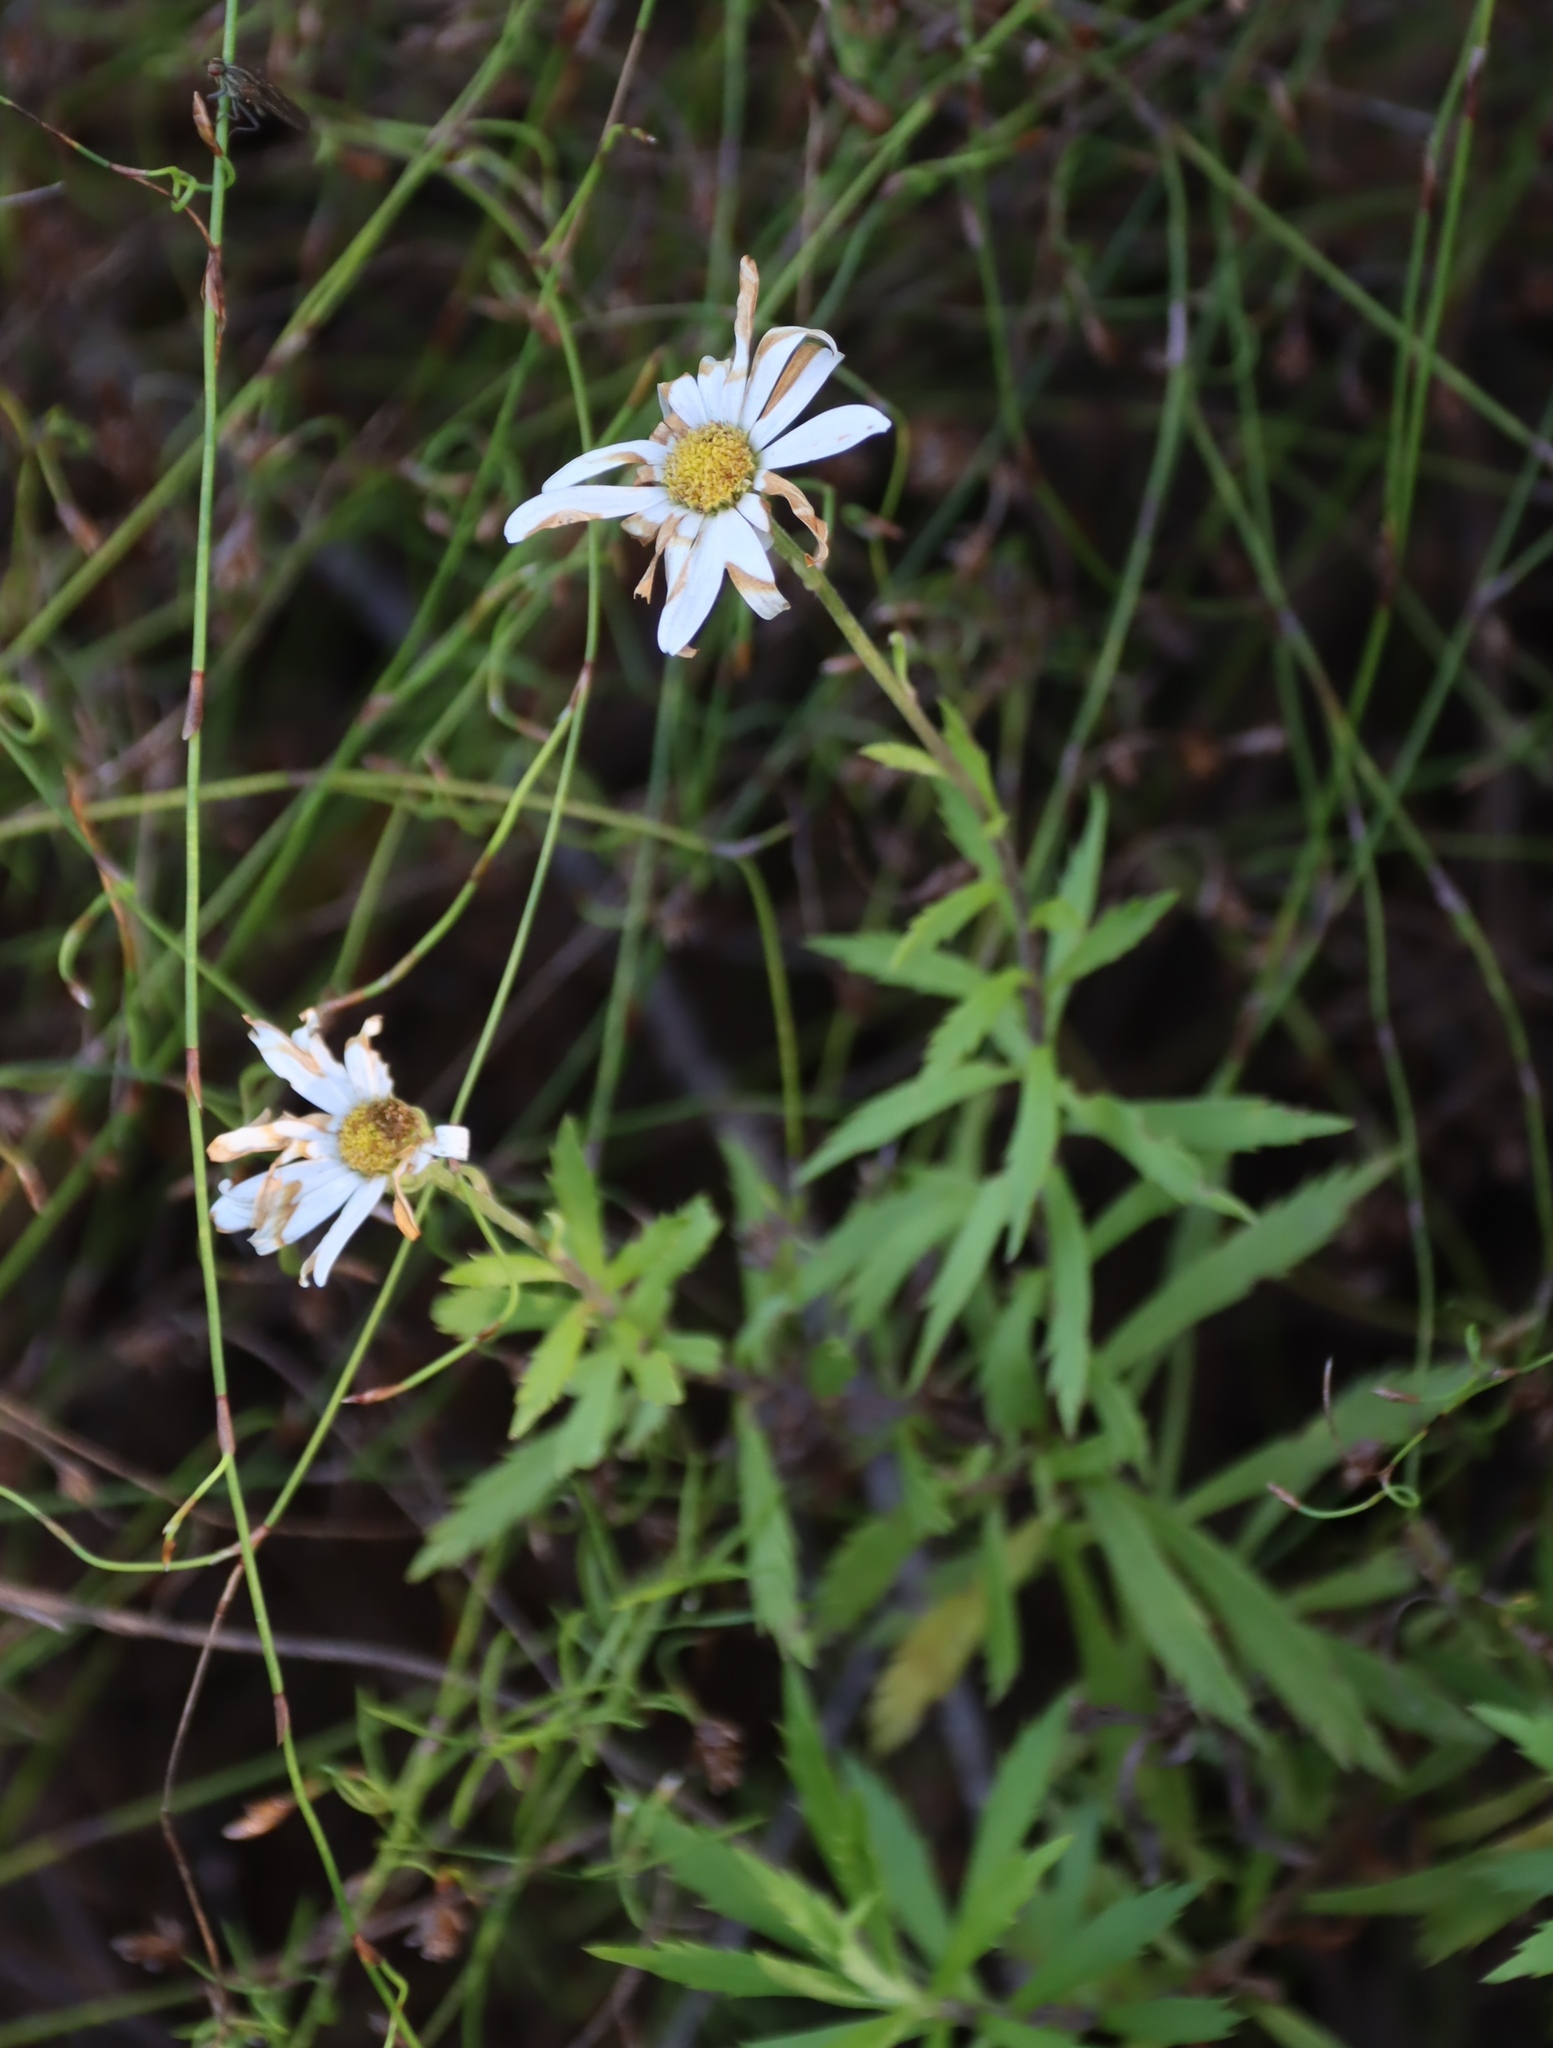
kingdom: Plantae
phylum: Tracheophyta
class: Magnoliopsida
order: Asterales
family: Asteraceae
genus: Osmitopsis
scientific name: Osmitopsis osmitoides
